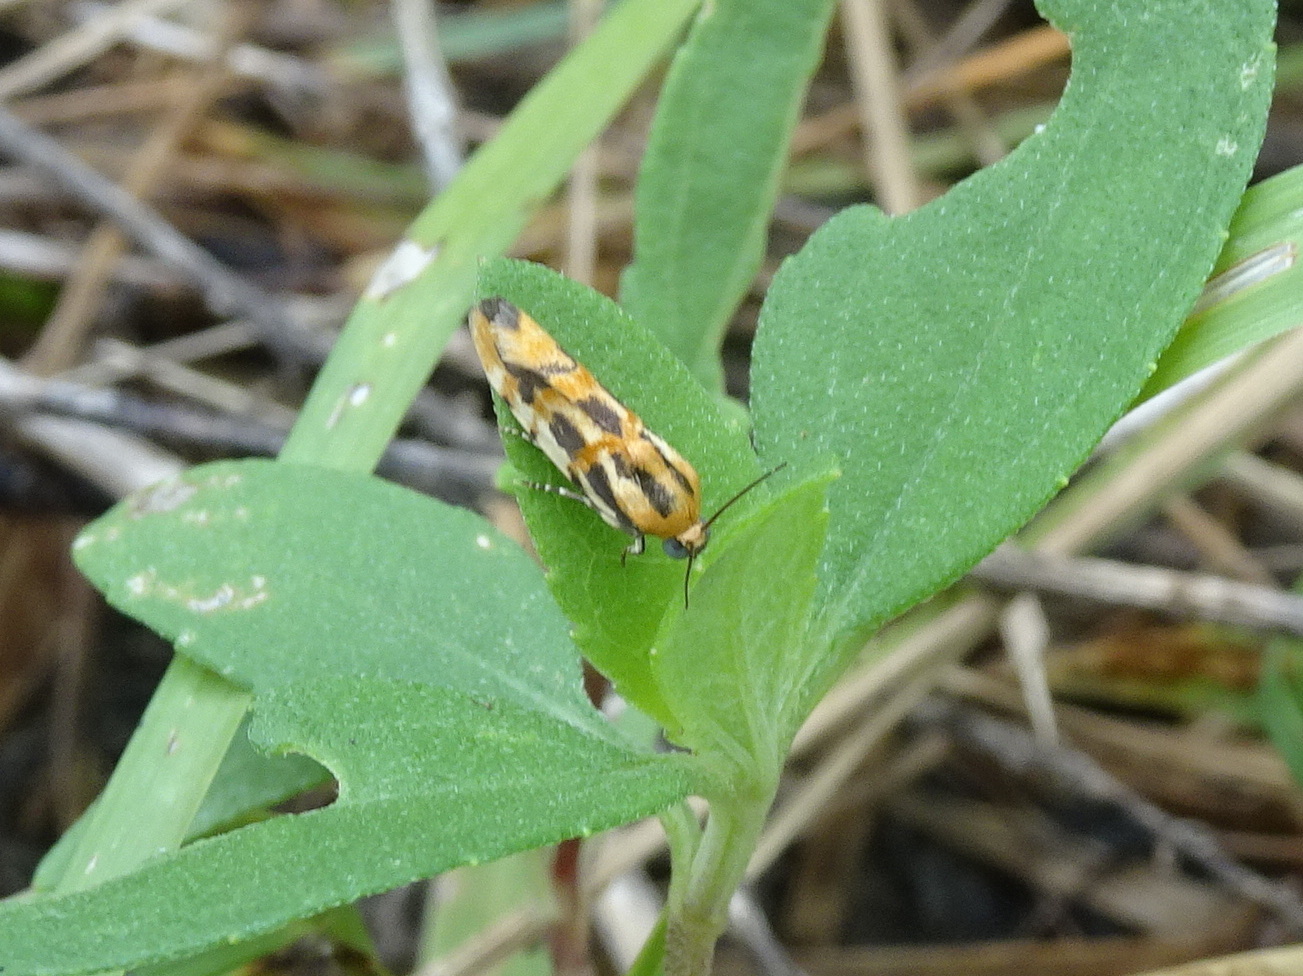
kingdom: Animalia
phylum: Arthropoda
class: Insecta
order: Lepidoptera
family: Noctuidae
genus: Acontia
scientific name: Acontia leo
